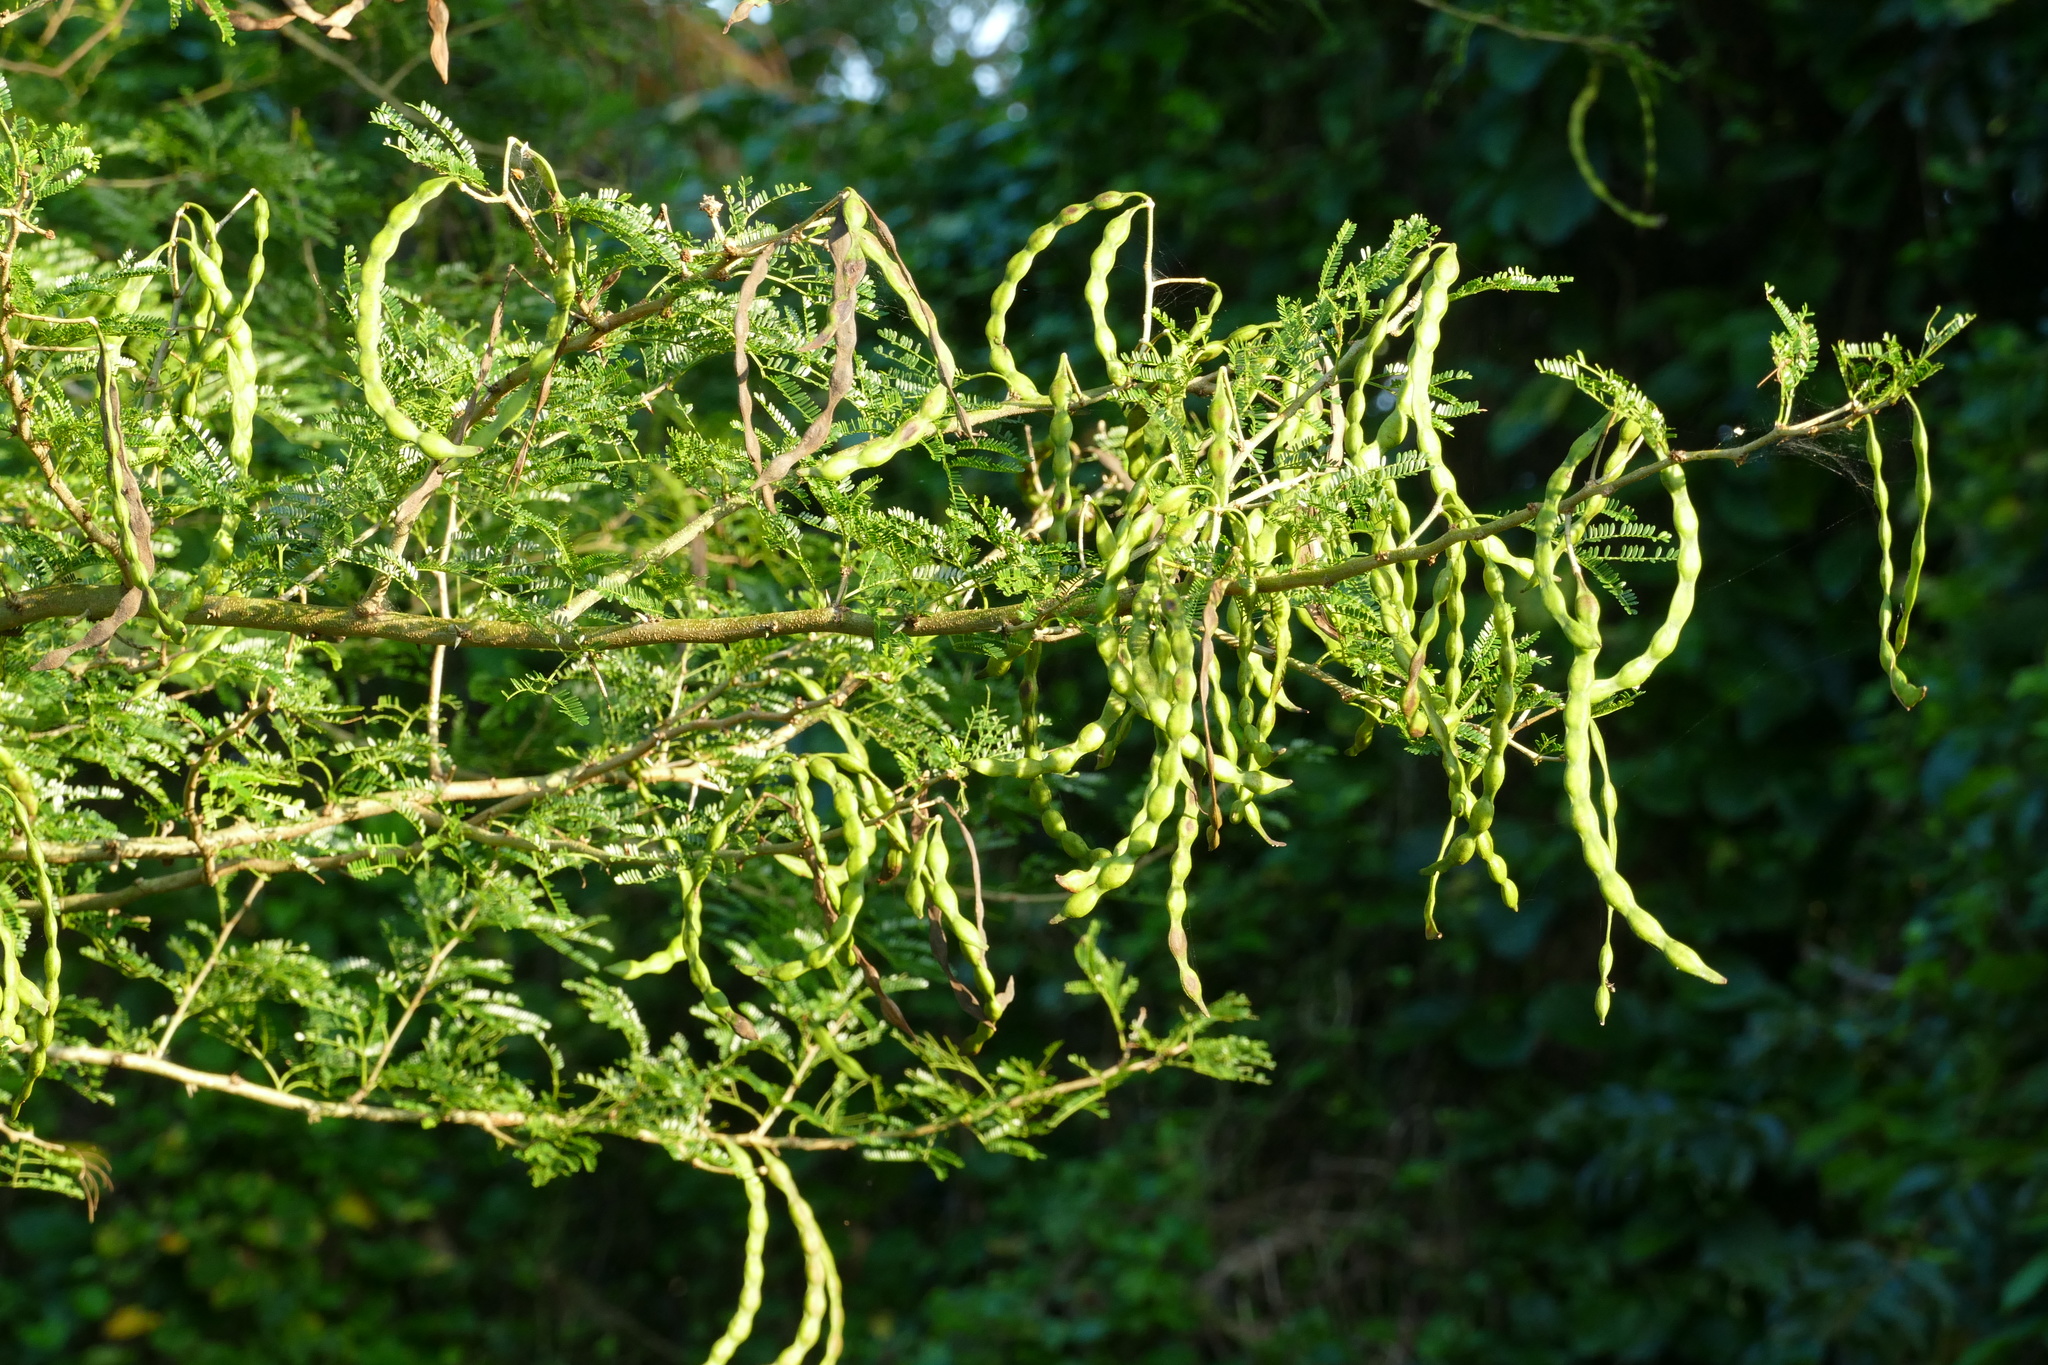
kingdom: Plantae
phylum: Tracheophyta
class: Magnoliopsida
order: Fabales
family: Fabaceae
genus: Vachellia
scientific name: Vachellia kosiensis
